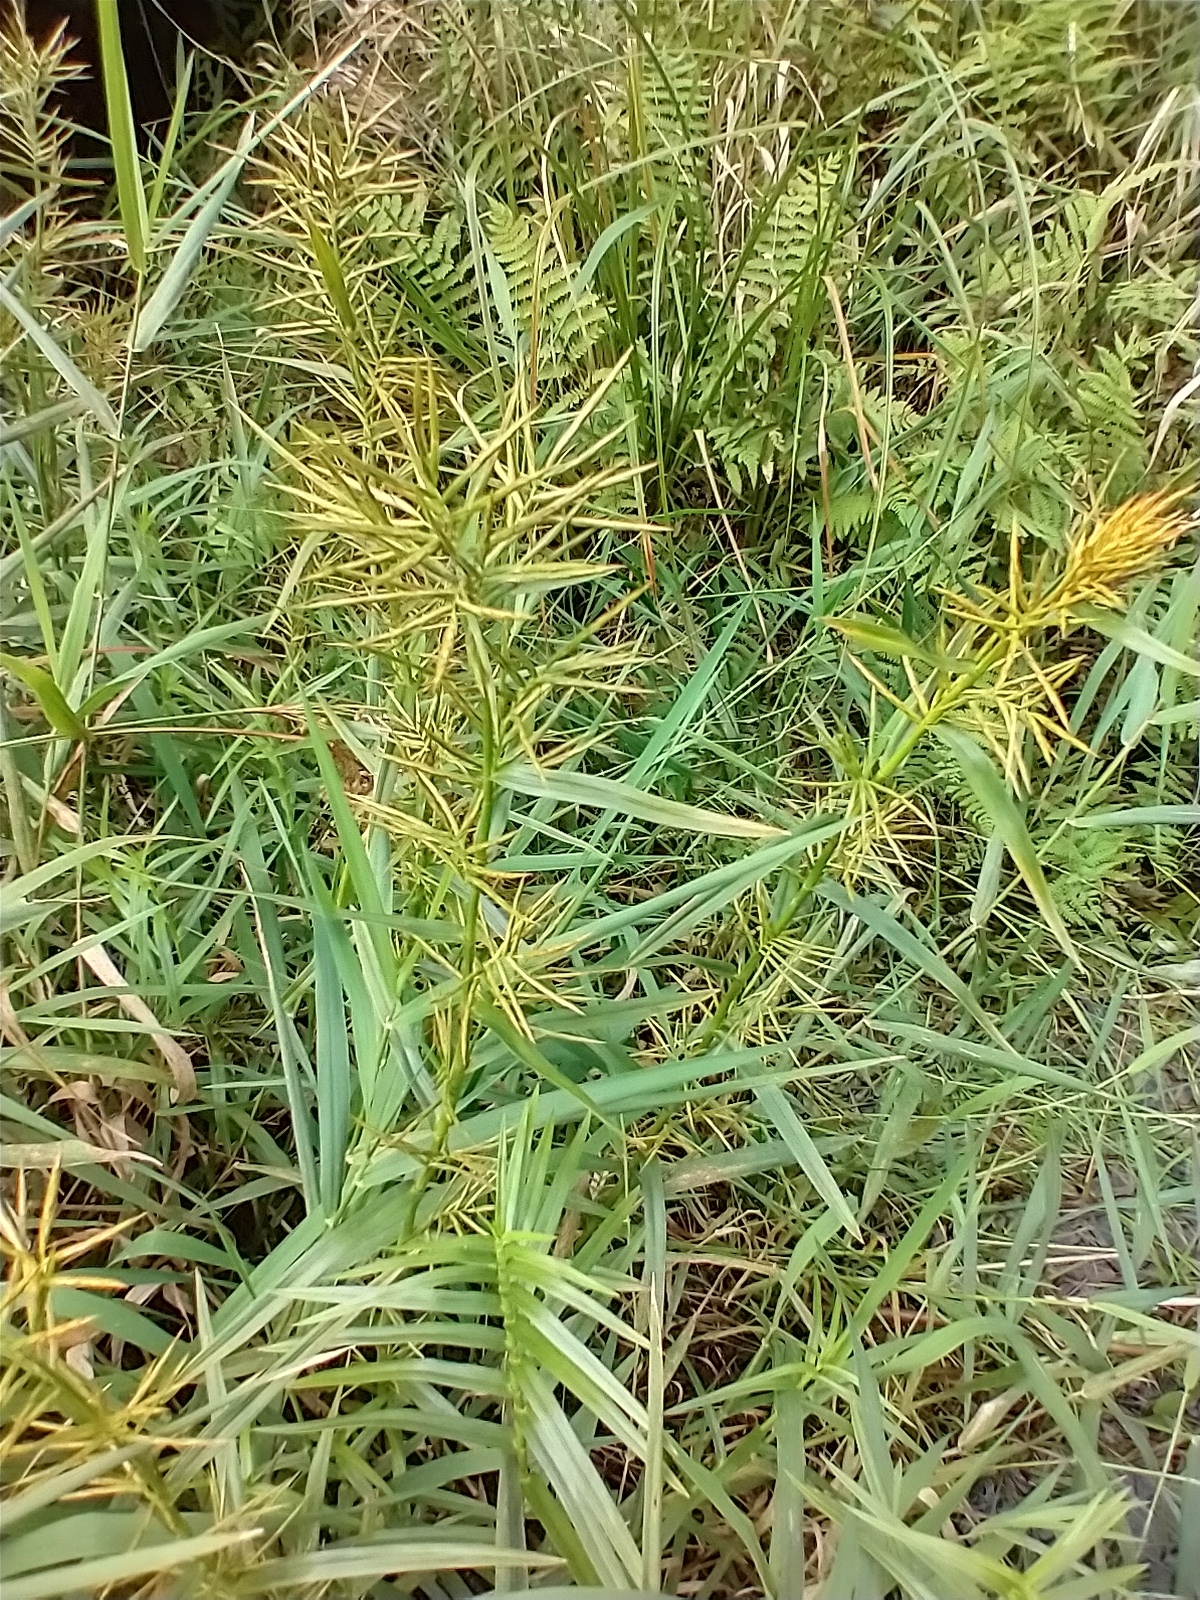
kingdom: Plantae
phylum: Tracheophyta
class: Liliopsida
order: Poales
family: Cyperaceae
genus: Dulichium
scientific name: Dulichium arundinaceum
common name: Three-way sedge
